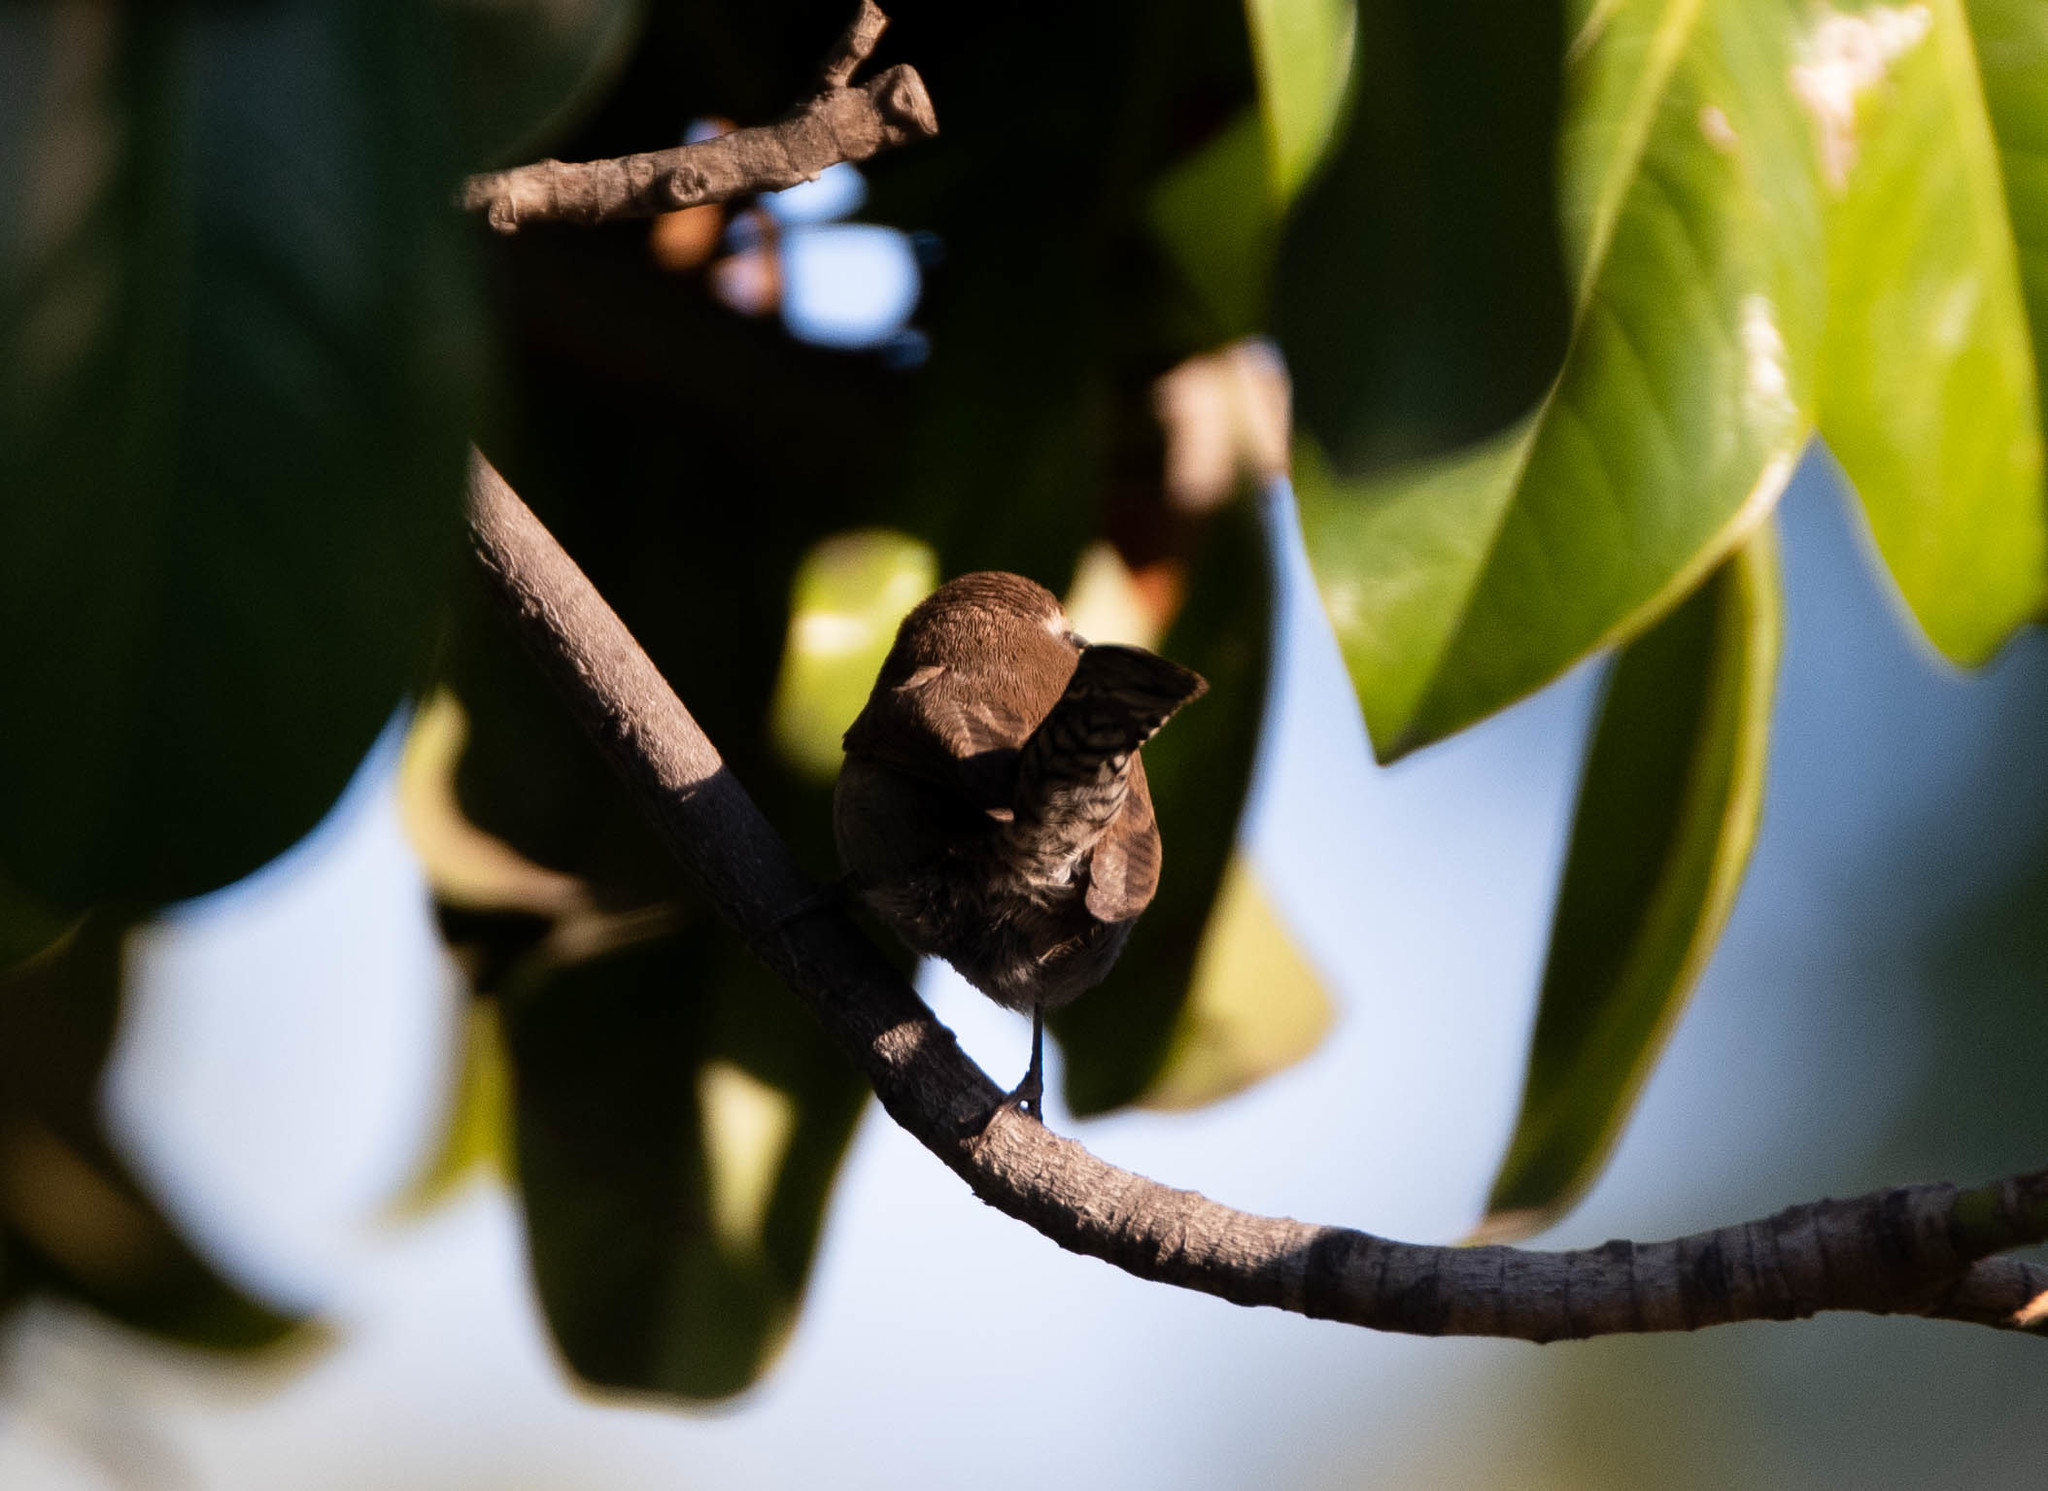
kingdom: Animalia
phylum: Chordata
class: Aves
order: Passeriformes
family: Troglodytidae
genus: Thryomanes
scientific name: Thryomanes bewickii
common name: Bewick's wren
